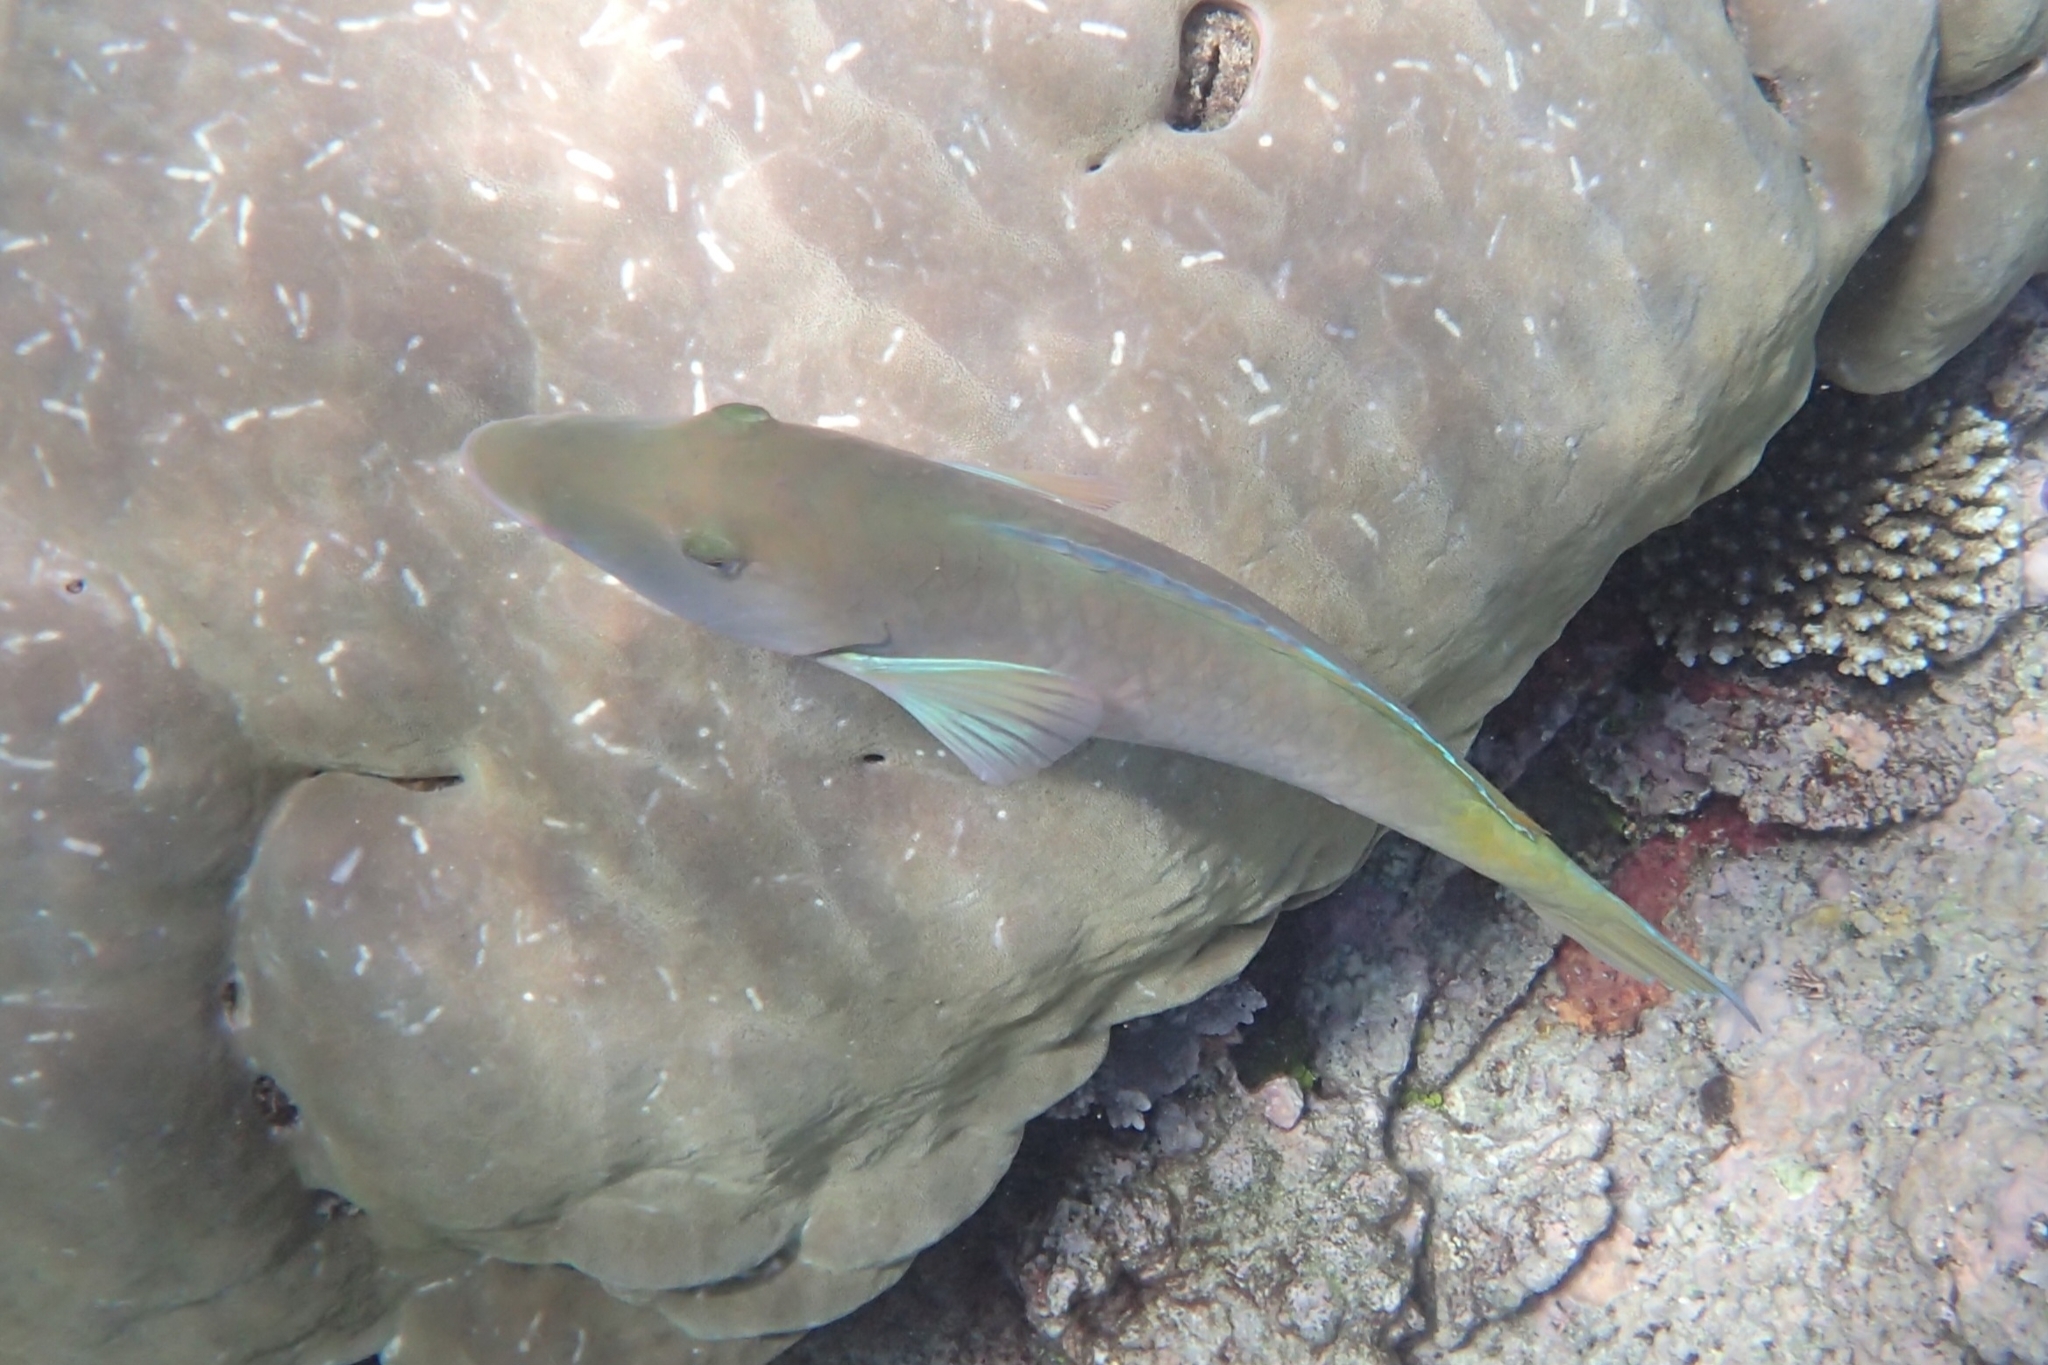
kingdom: Animalia
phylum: Chordata
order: Perciformes
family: Scaridae
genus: Hipposcarus
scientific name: Hipposcarus longiceps
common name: Pacific longnose parrotfish
